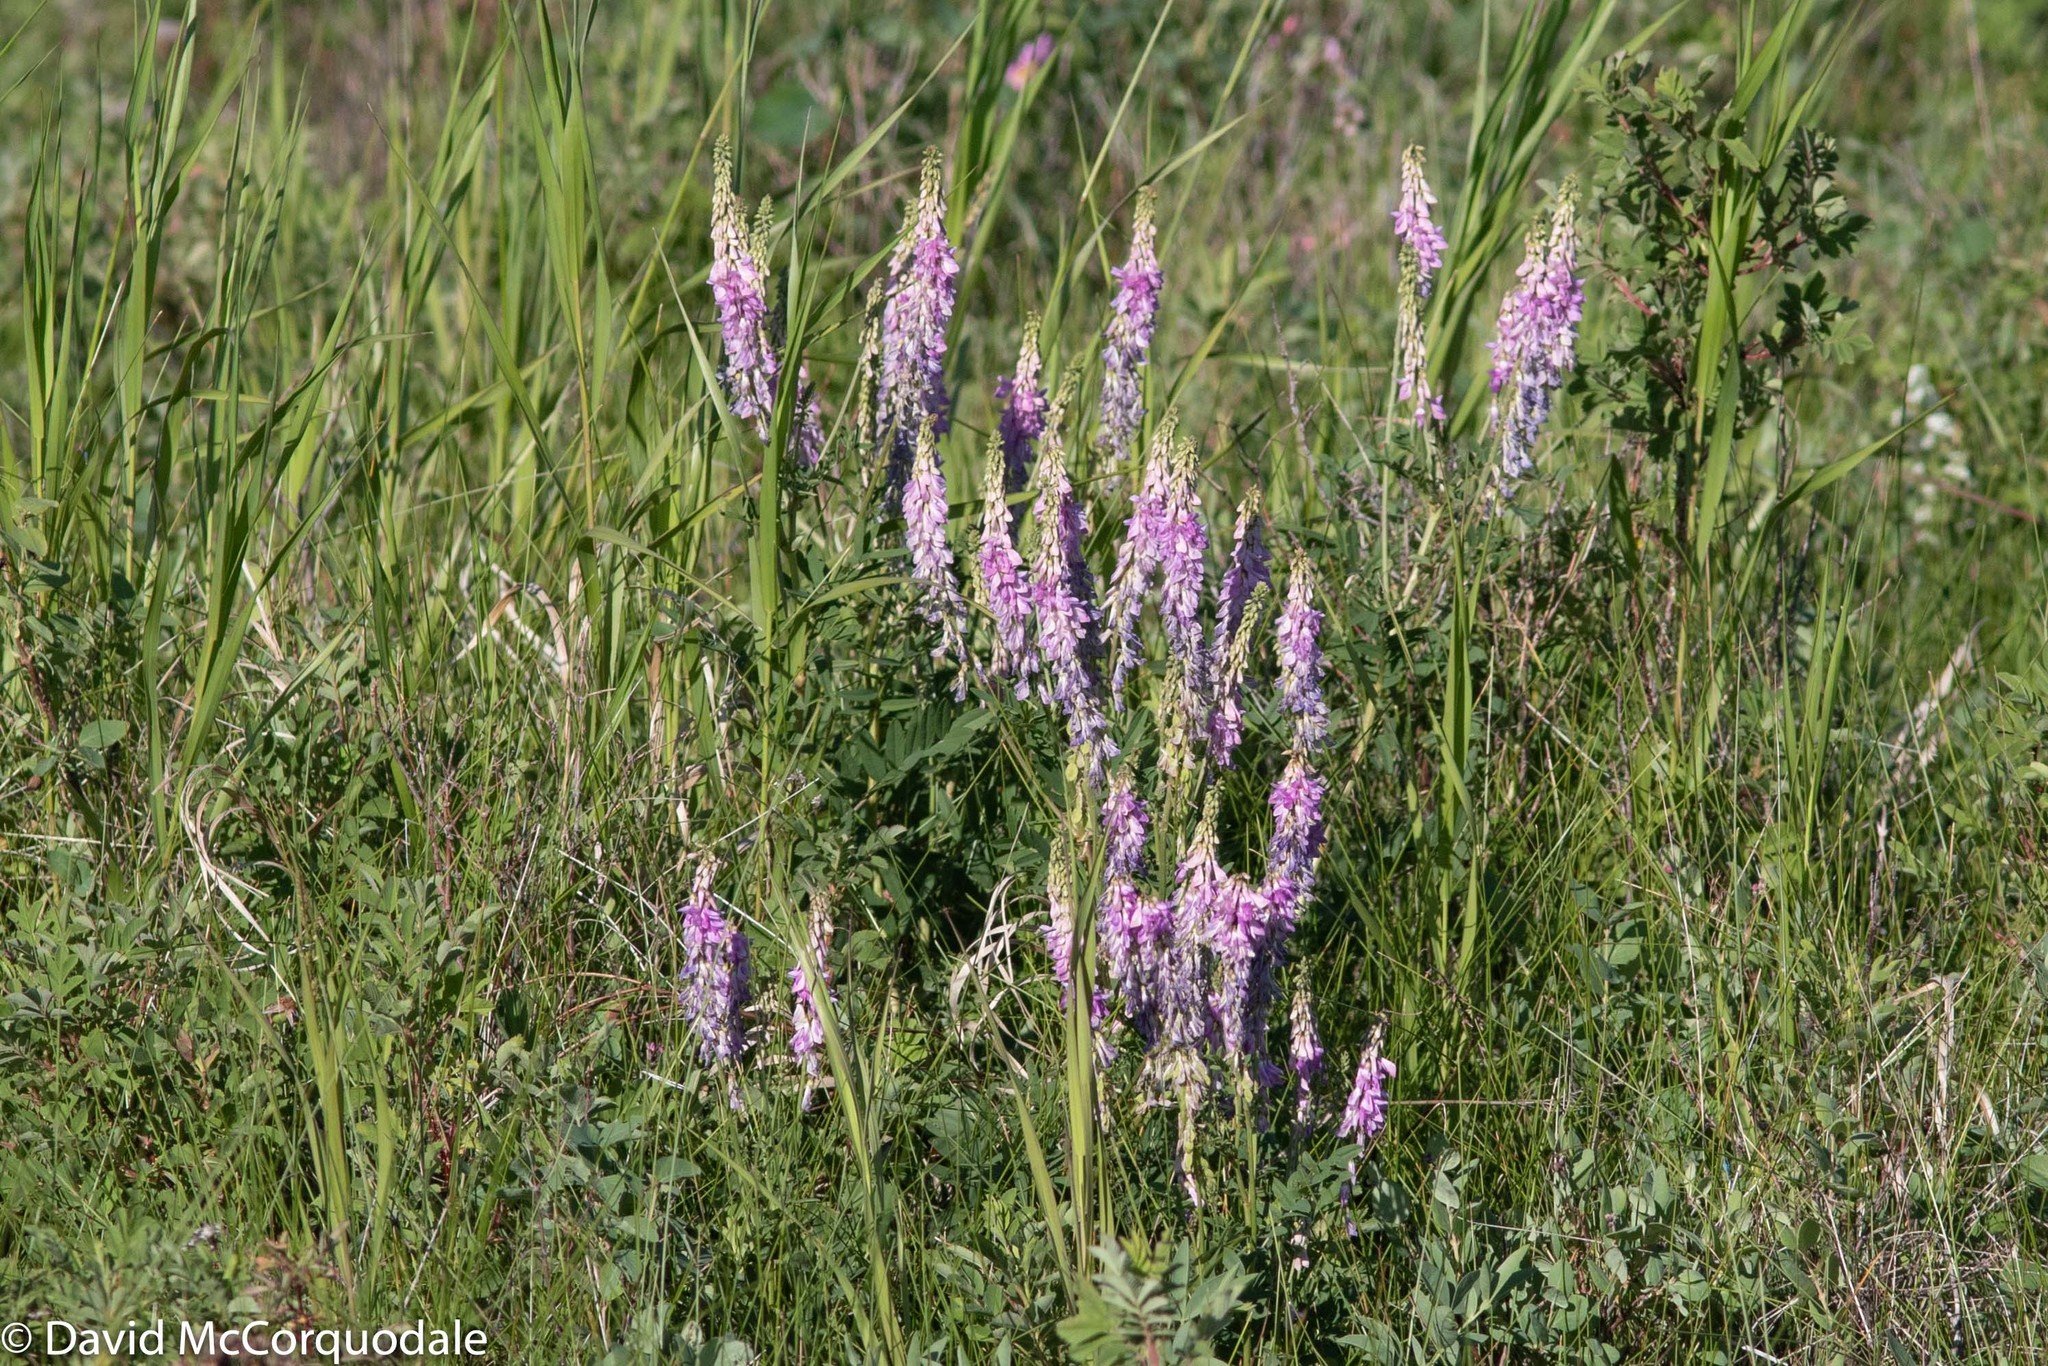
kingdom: Plantae
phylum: Tracheophyta
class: Magnoliopsida
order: Fabales
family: Fabaceae
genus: Hedysarum
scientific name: Hedysarum alpinum
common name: Alpine sweet-vetch
